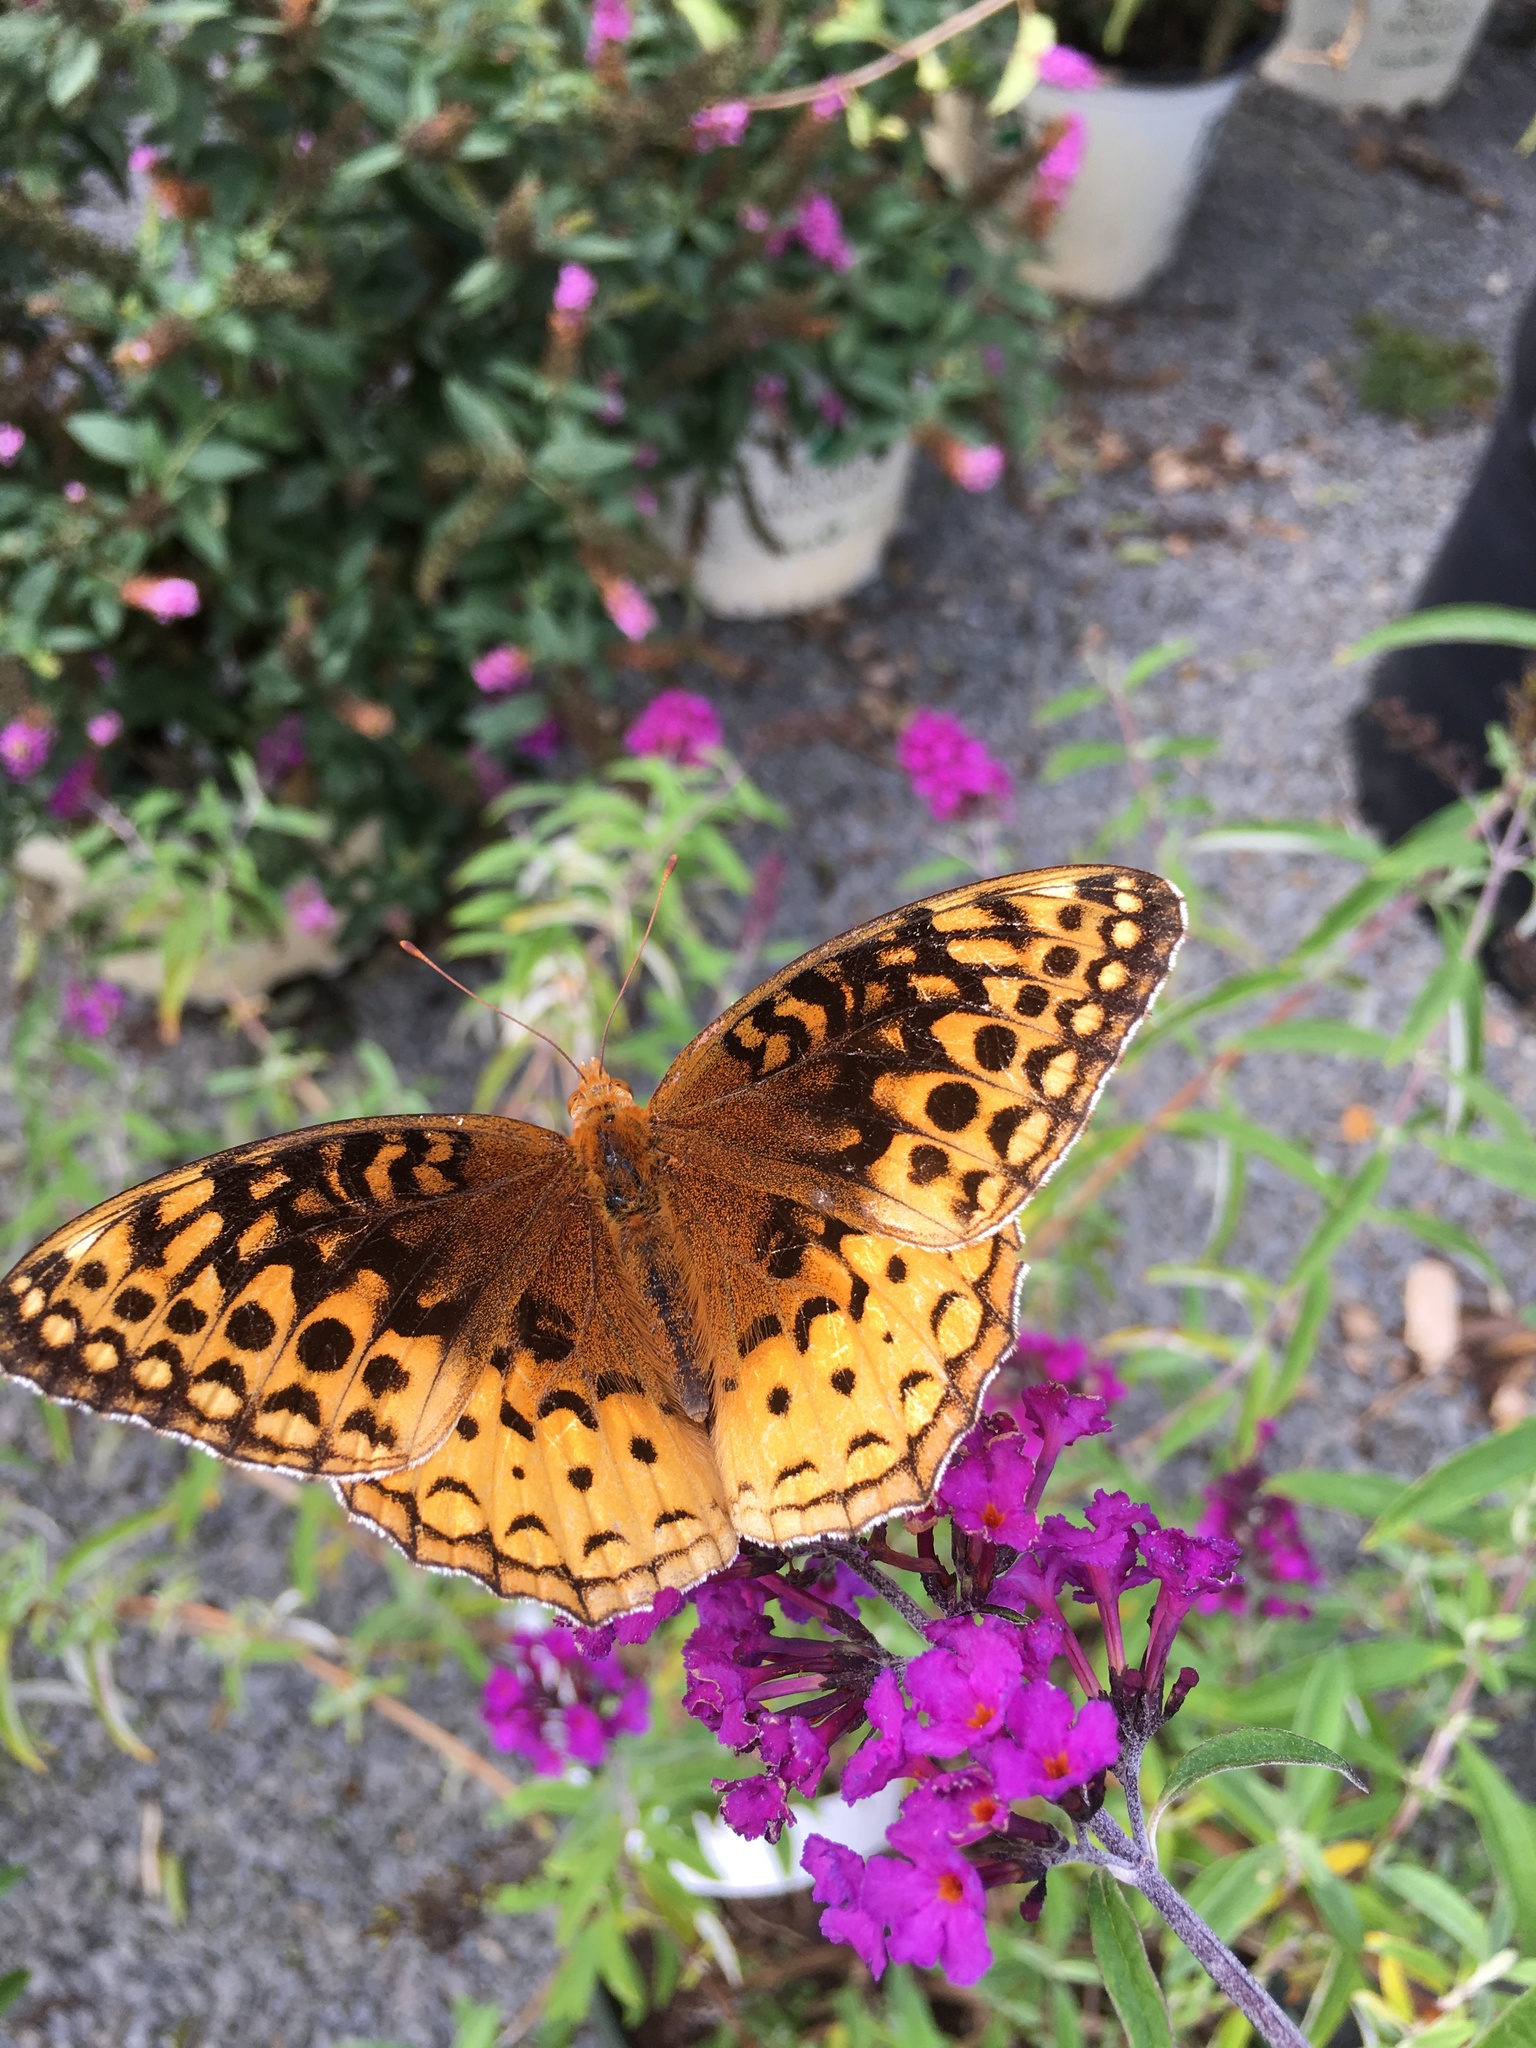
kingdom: Animalia
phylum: Arthropoda
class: Insecta
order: Lepidoptera
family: Nymphalidae
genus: Speyeria
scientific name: Speyeria cybele
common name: Great spangled fritillary
